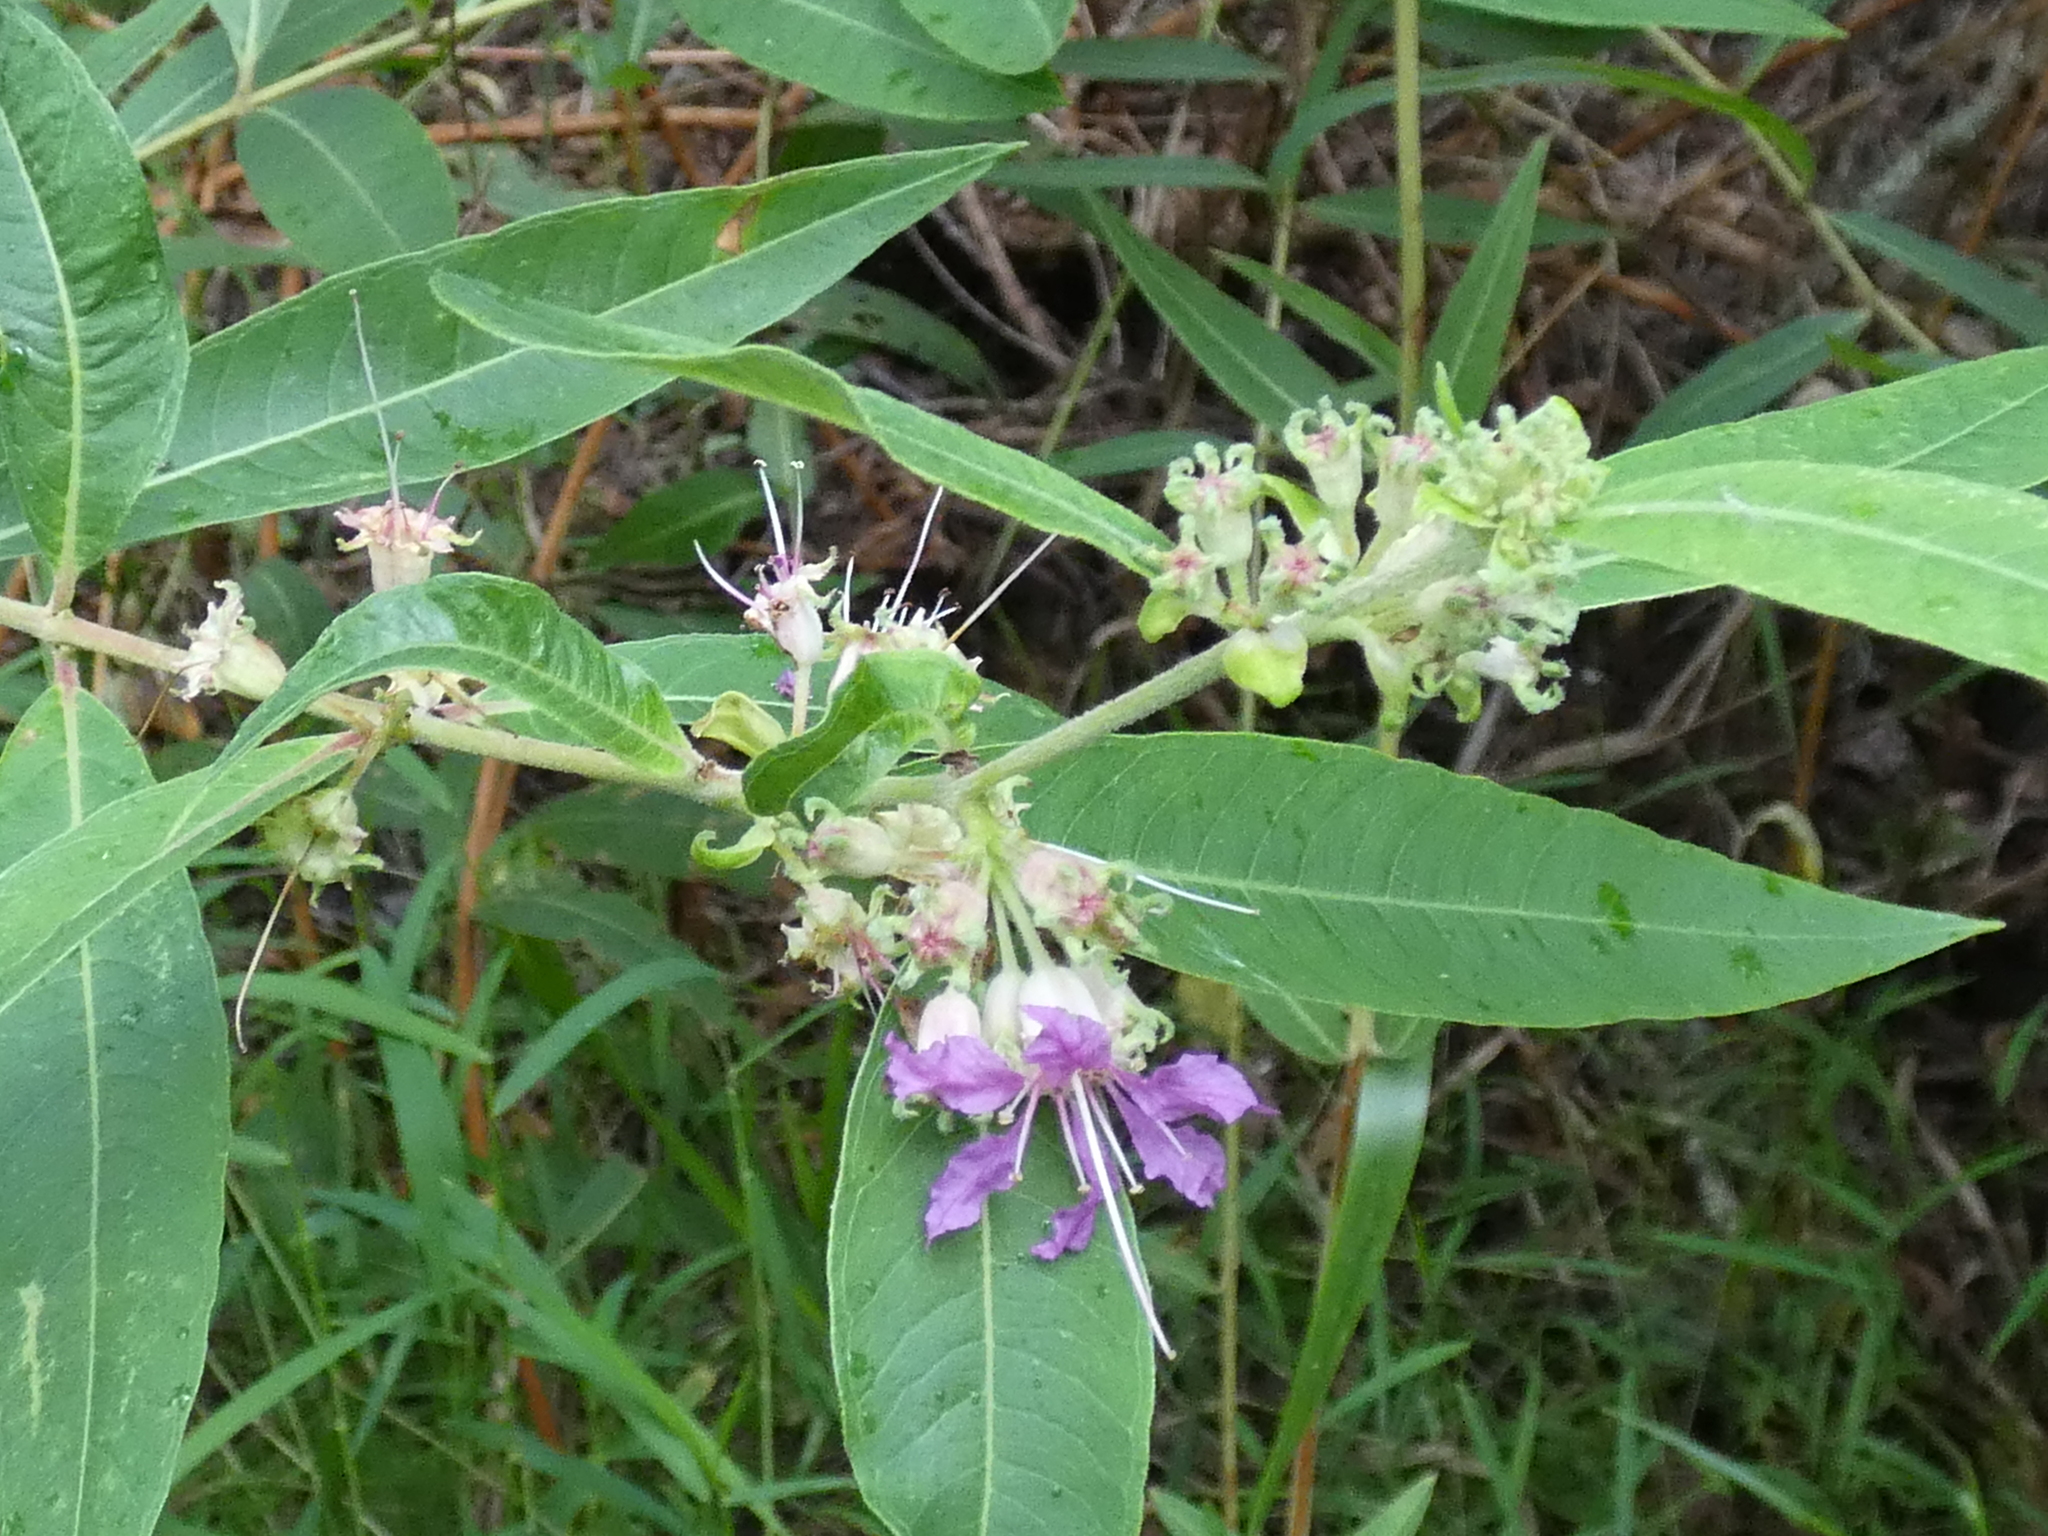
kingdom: Plantae
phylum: Tracheophyta
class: Magnoliopsida
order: Myrtales
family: Lythraceae
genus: Decodon
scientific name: Decodon verticillatus
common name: Hairy swamp loosestrife
